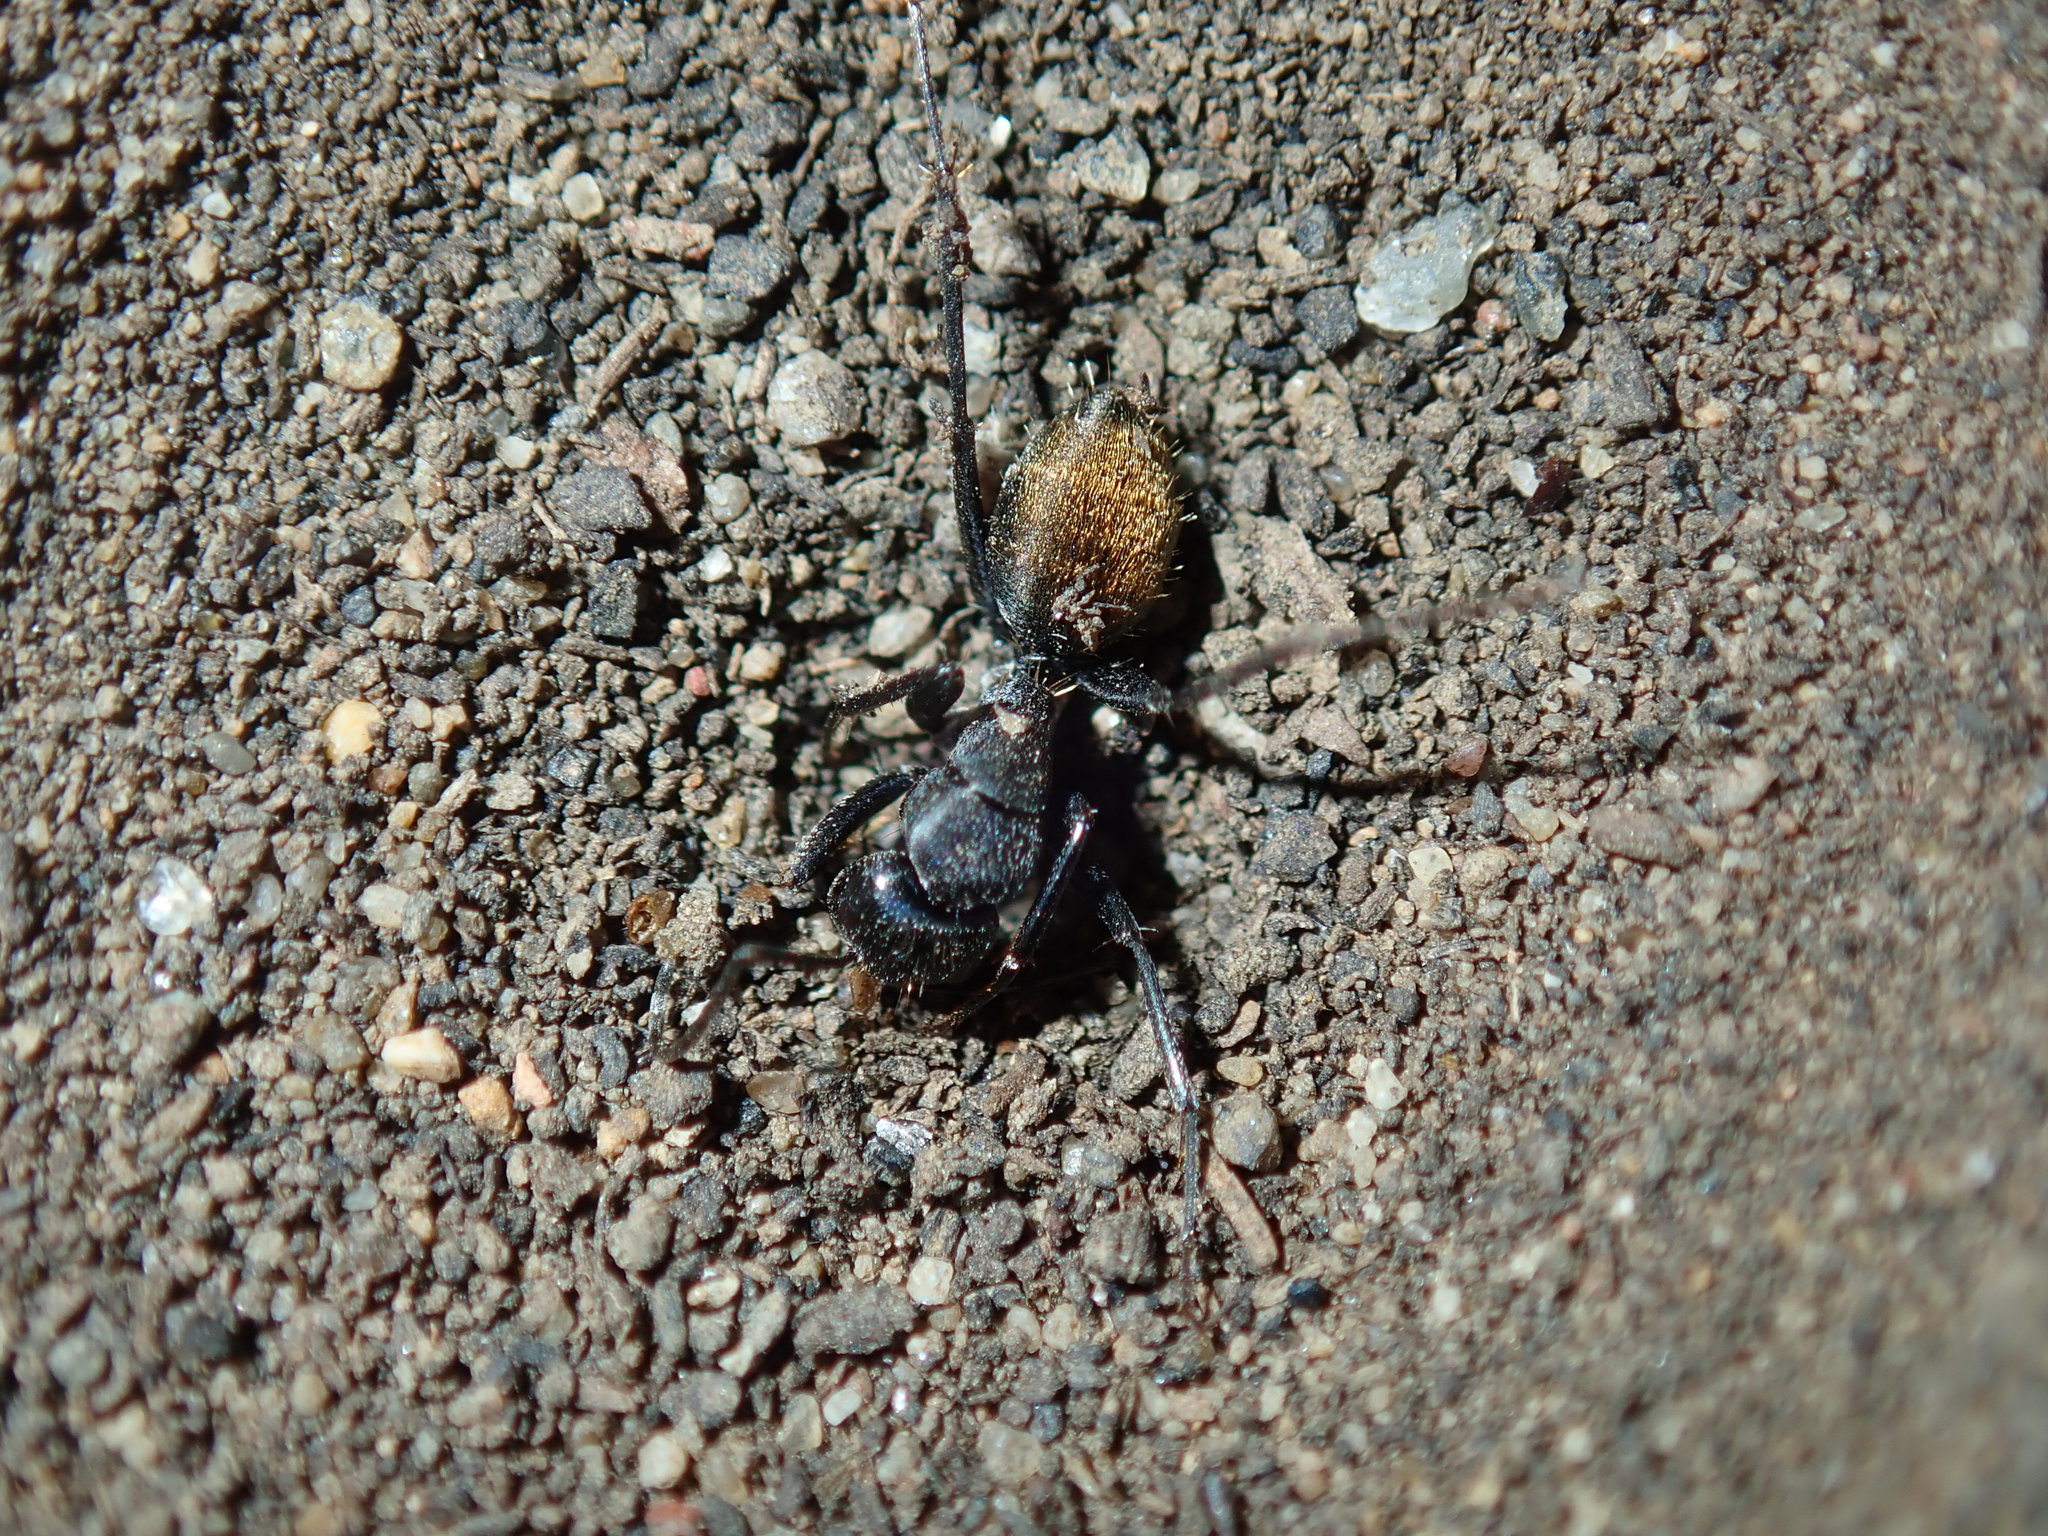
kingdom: Animalia
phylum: Arthropoda
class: Insecta
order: Hymenoptera
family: Formicidae
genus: Camponotus
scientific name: Camponotus aeneopilosus
